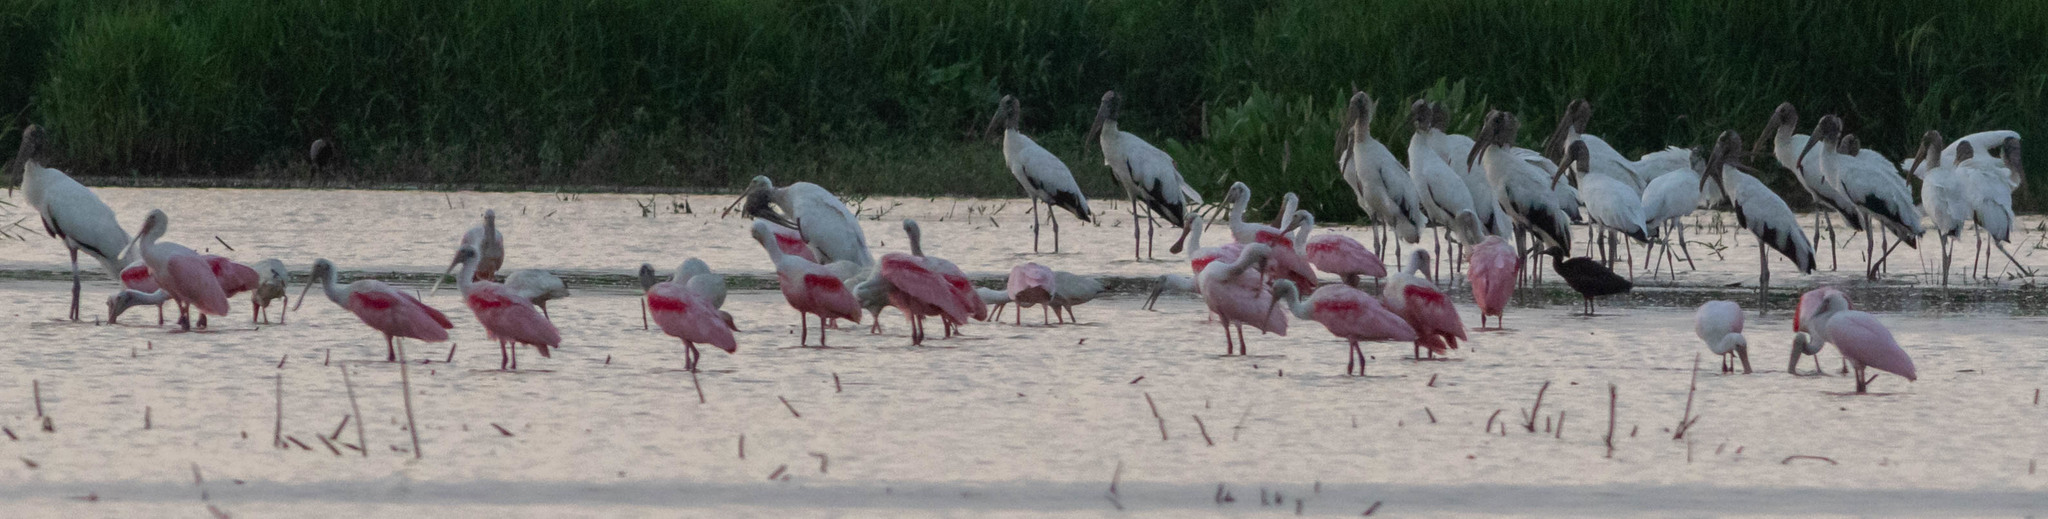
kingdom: Animalia
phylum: Chordata
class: Aves
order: Pelecaniformes
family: Threskiornithidae
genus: Platalea
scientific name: Platalea ajaja
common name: Roseate spoonbill
